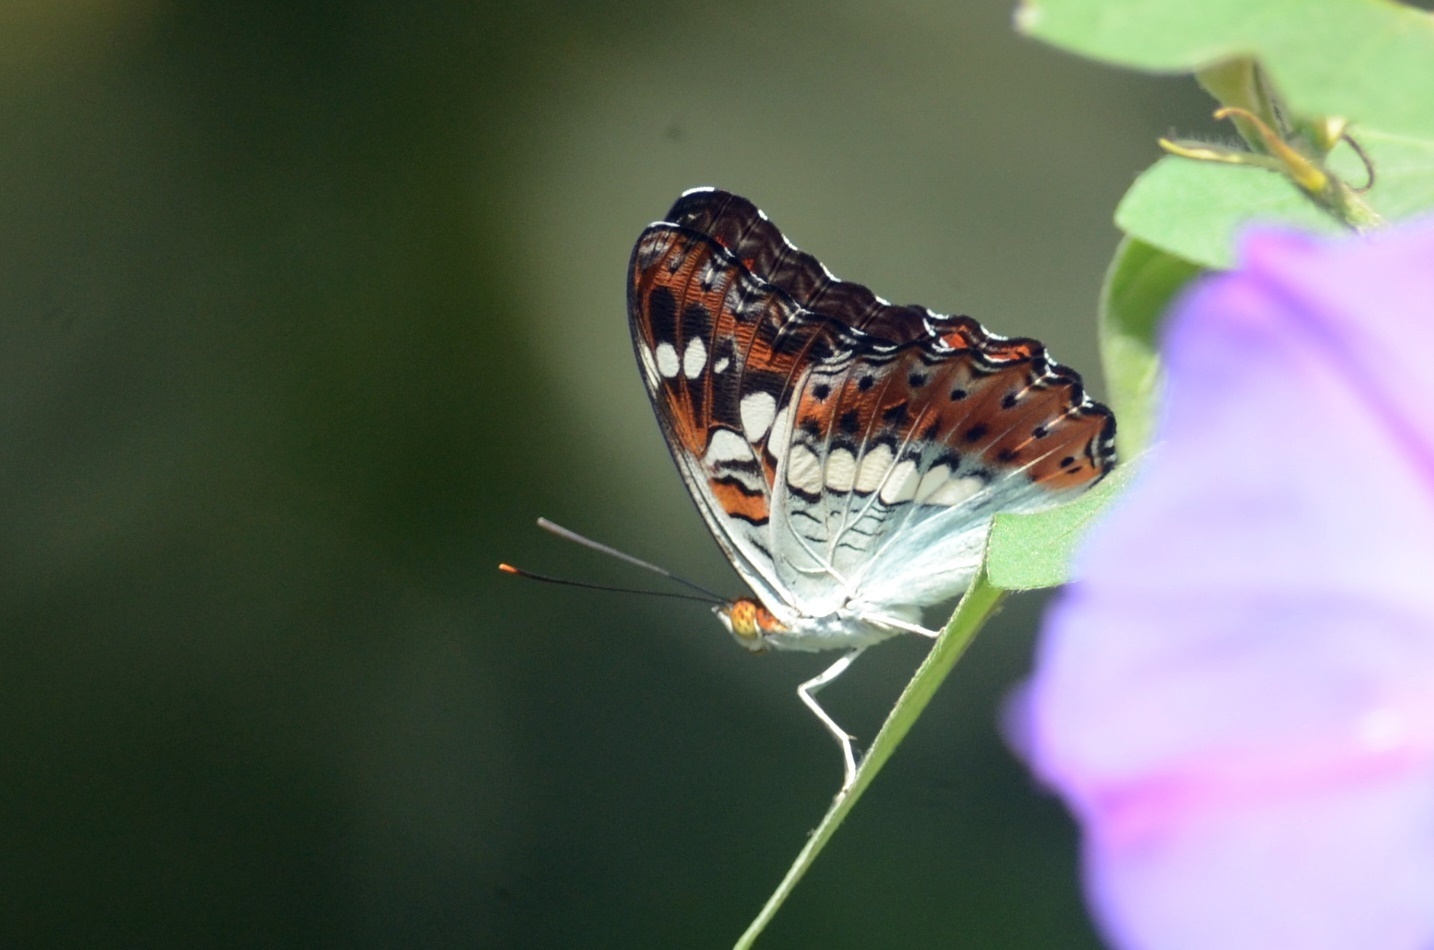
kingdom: Animalia
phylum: Arthropoda
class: Insecta
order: Lepidoptera
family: Nymphalidae
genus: Limenitis
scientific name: Limenitis Moduza procris
